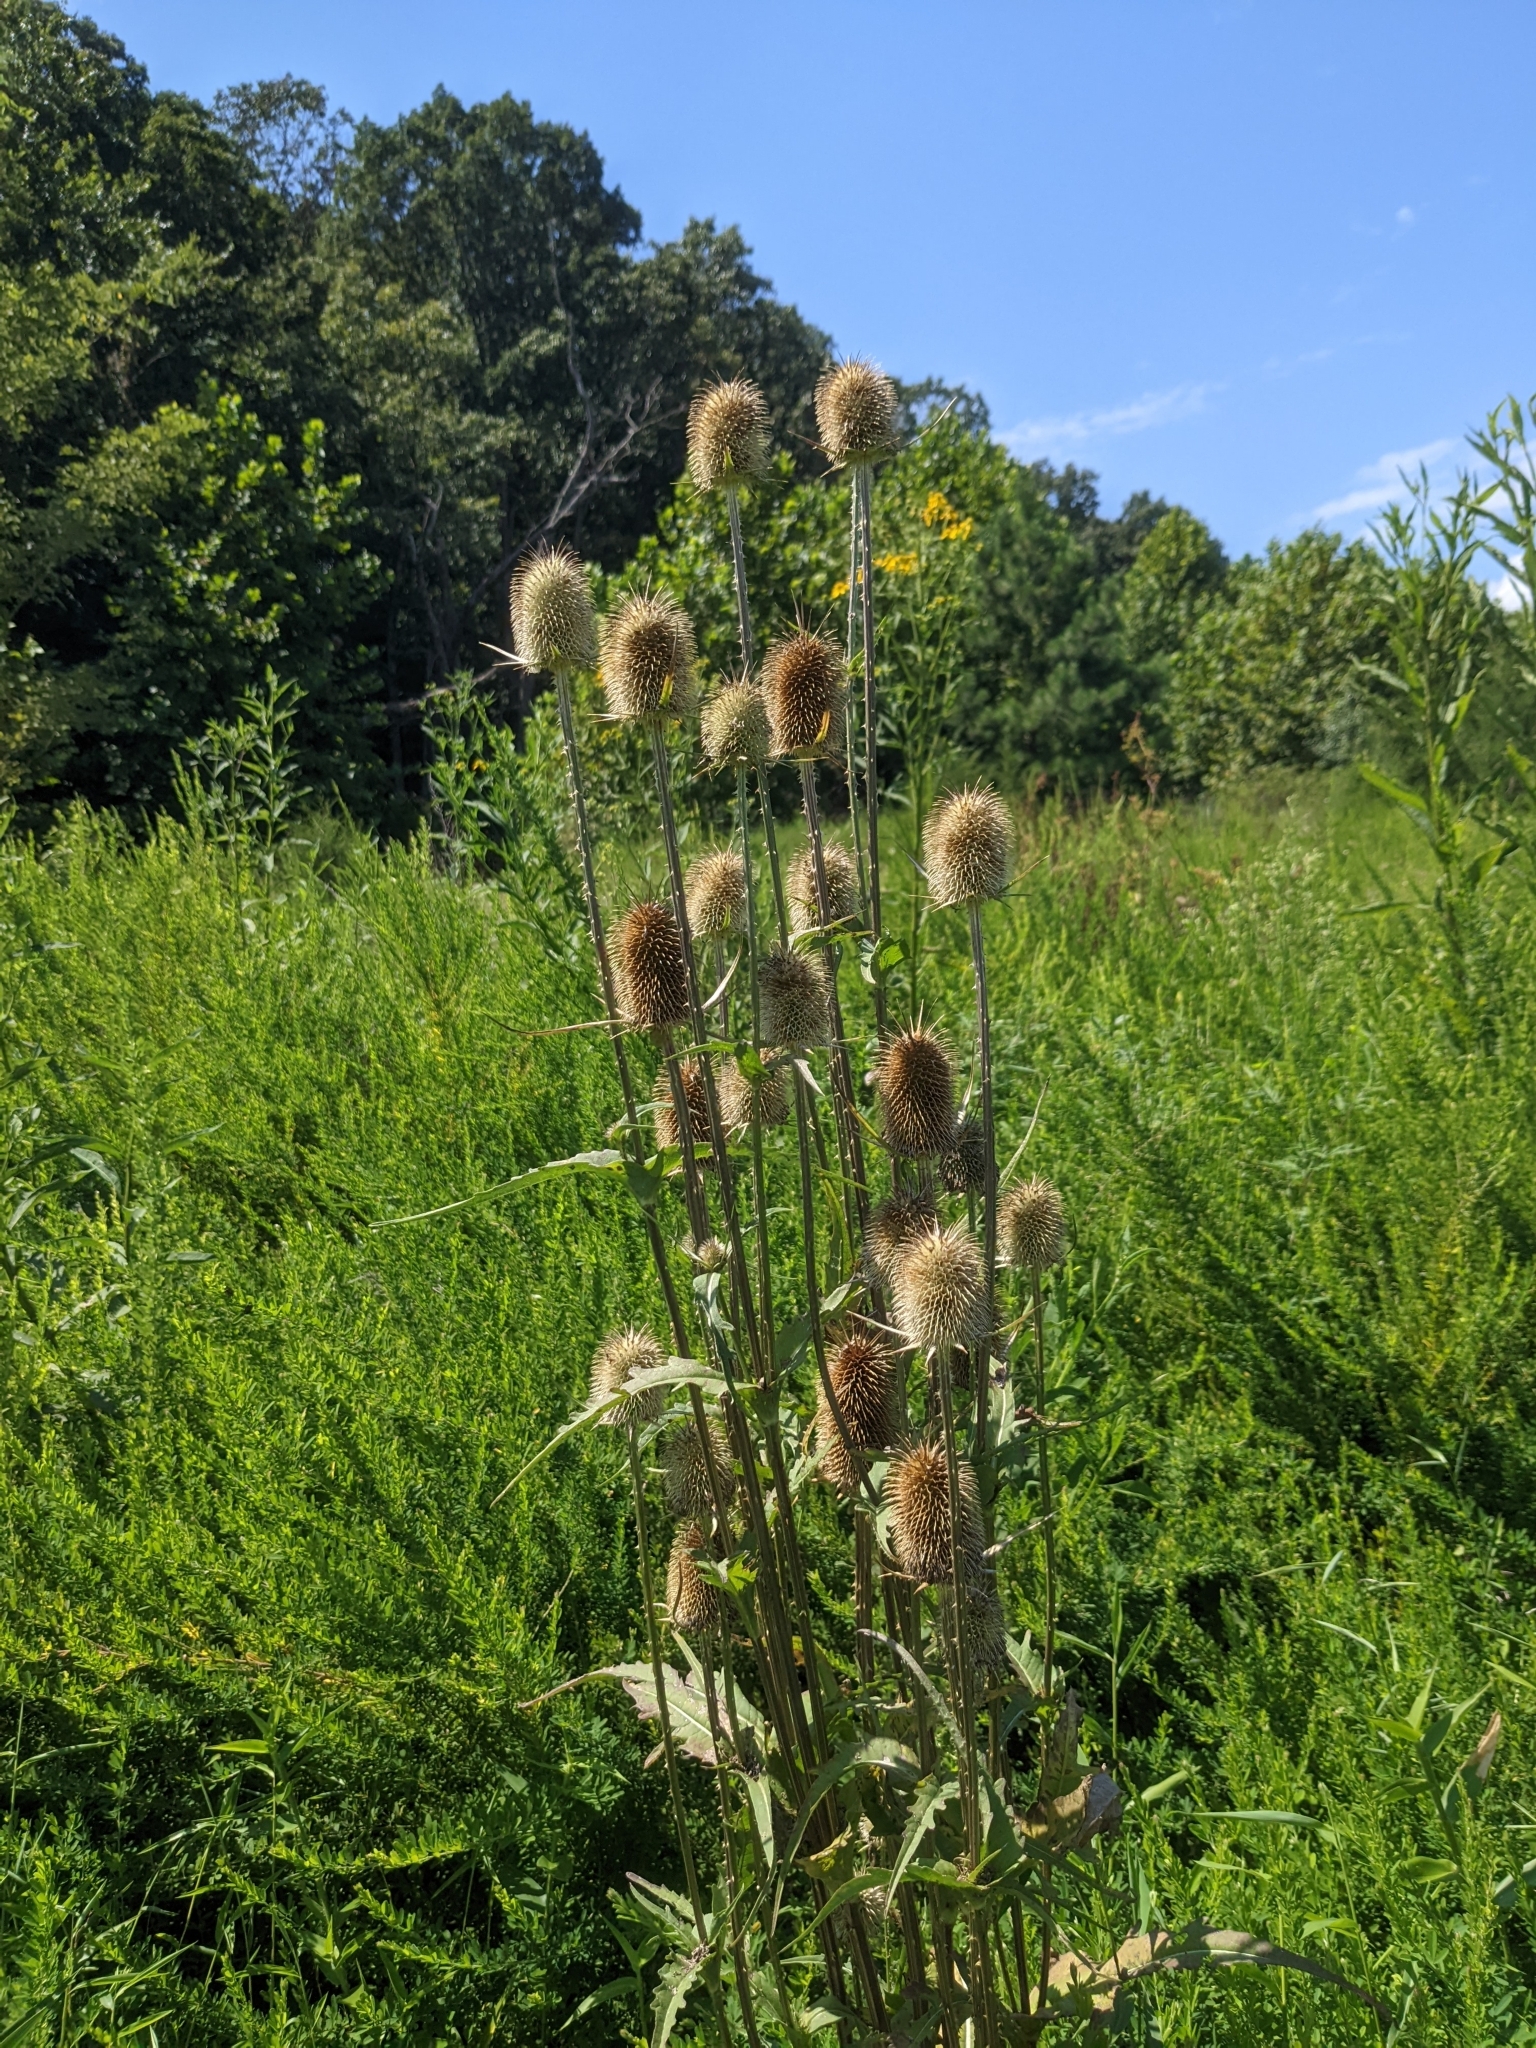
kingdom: Plantae
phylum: Tracheophyta
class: Magnoliopsida
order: Dipsacales
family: Caprifoliaceae
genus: Dipsacus
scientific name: Dipsacus laciniatus
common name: Cut-leaved teasel
